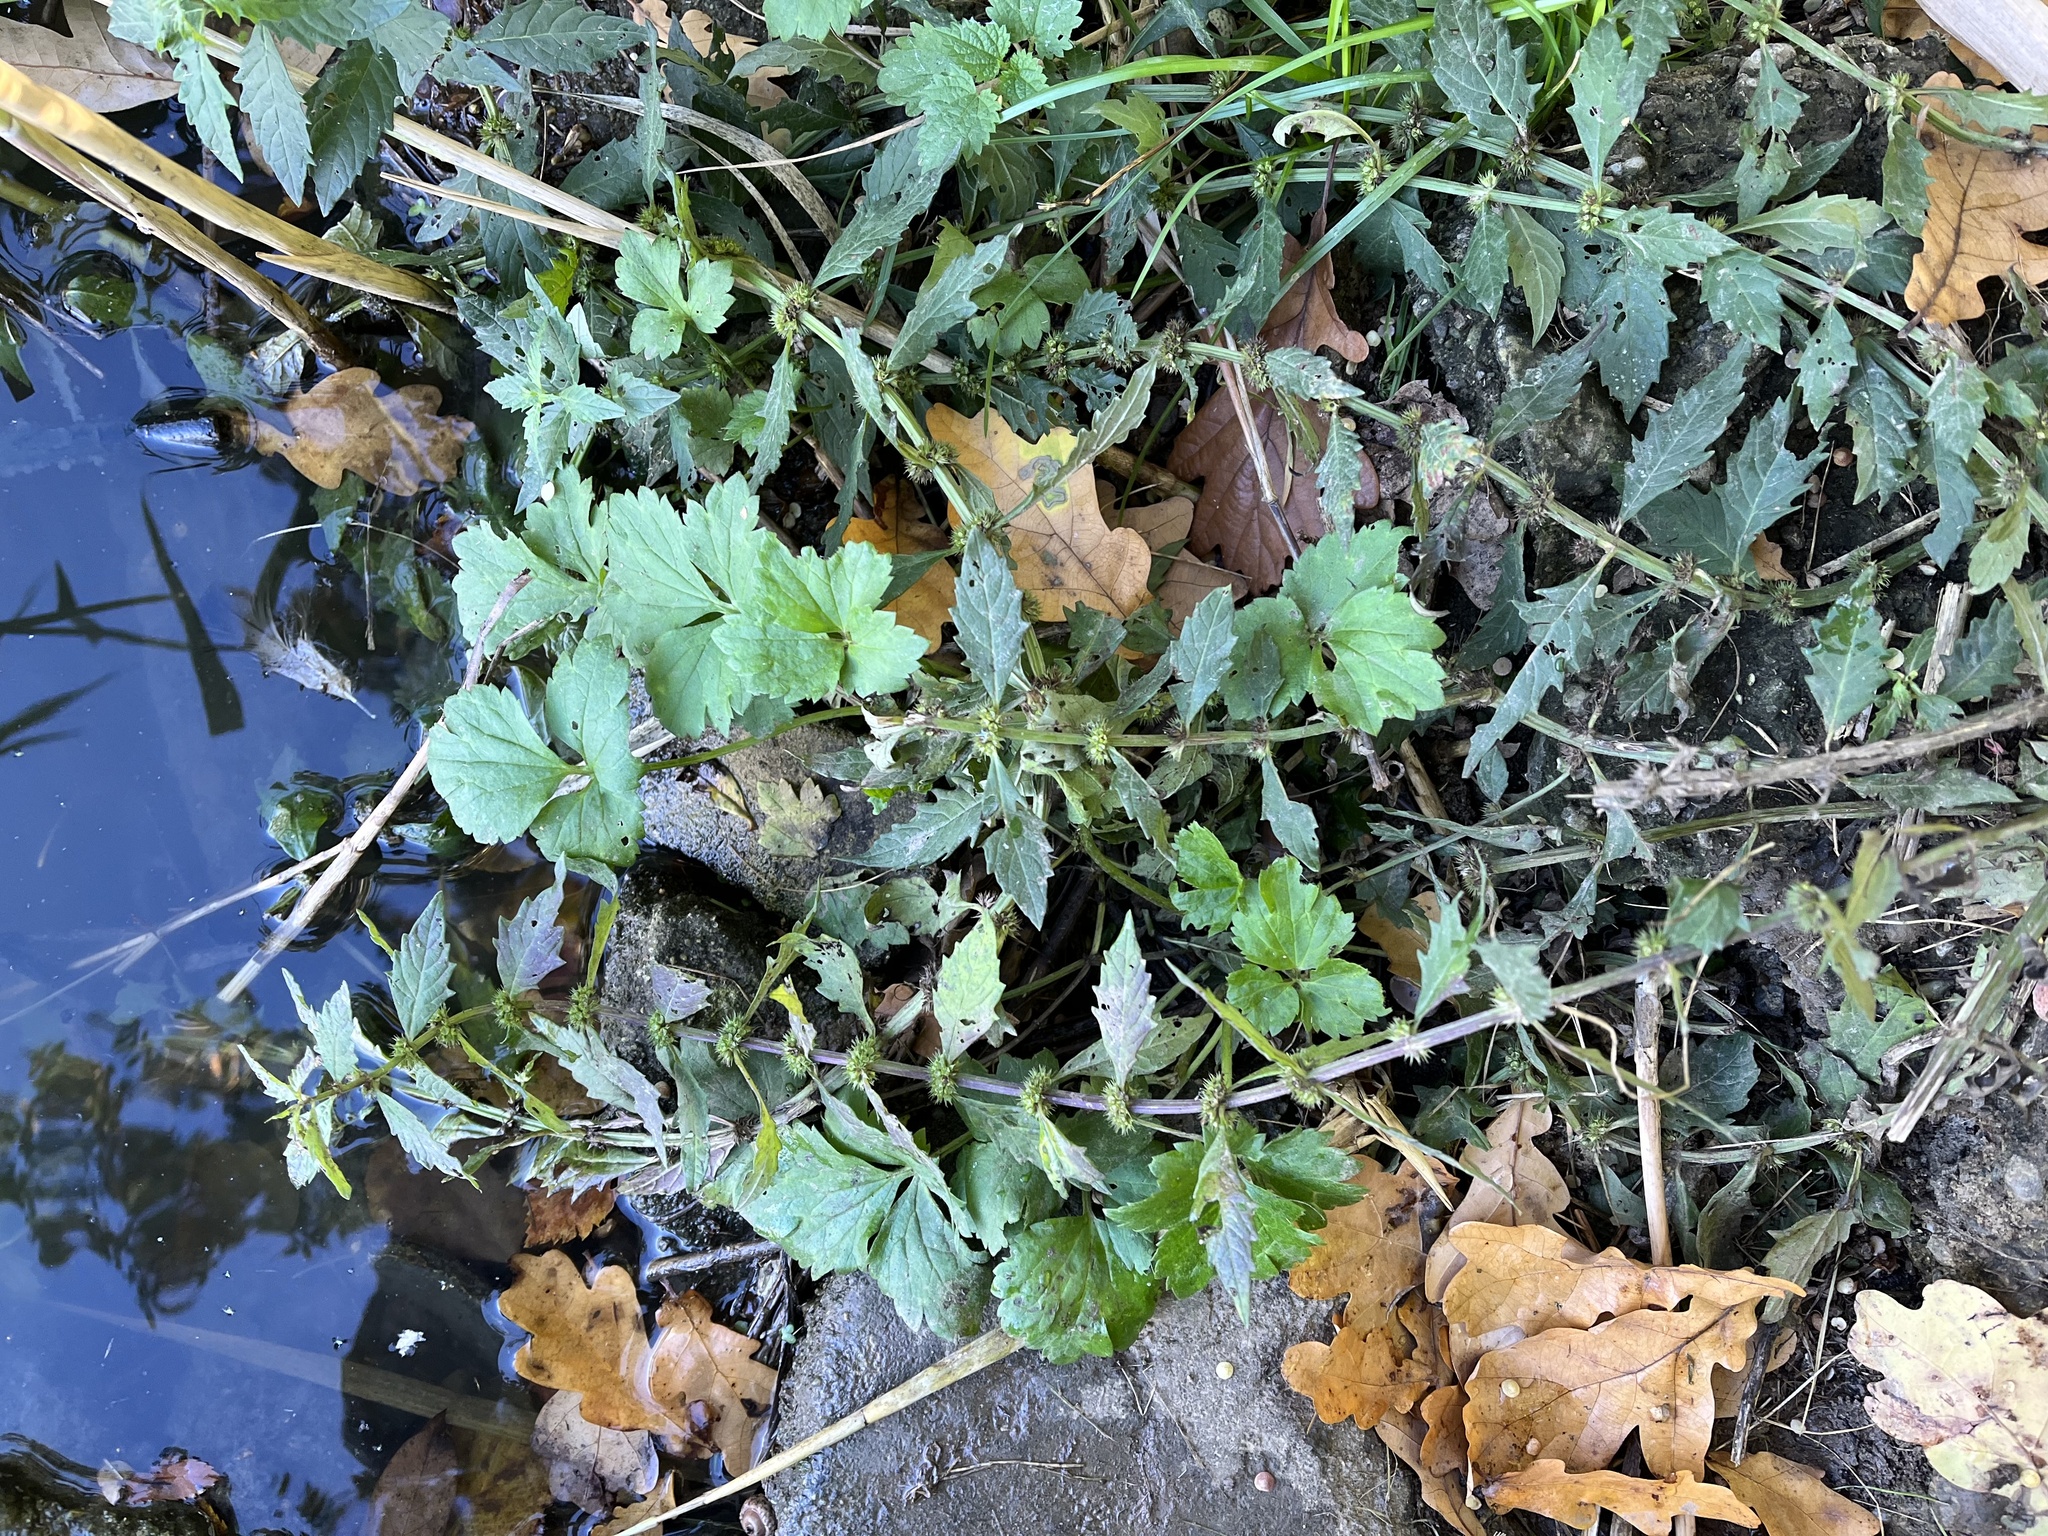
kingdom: Plantae
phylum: Tracheophyta
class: Magnoliopsida
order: Lamiales
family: Lamiaceae
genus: Lycopus
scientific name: Lycopus europaeus
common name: European bugleweed
